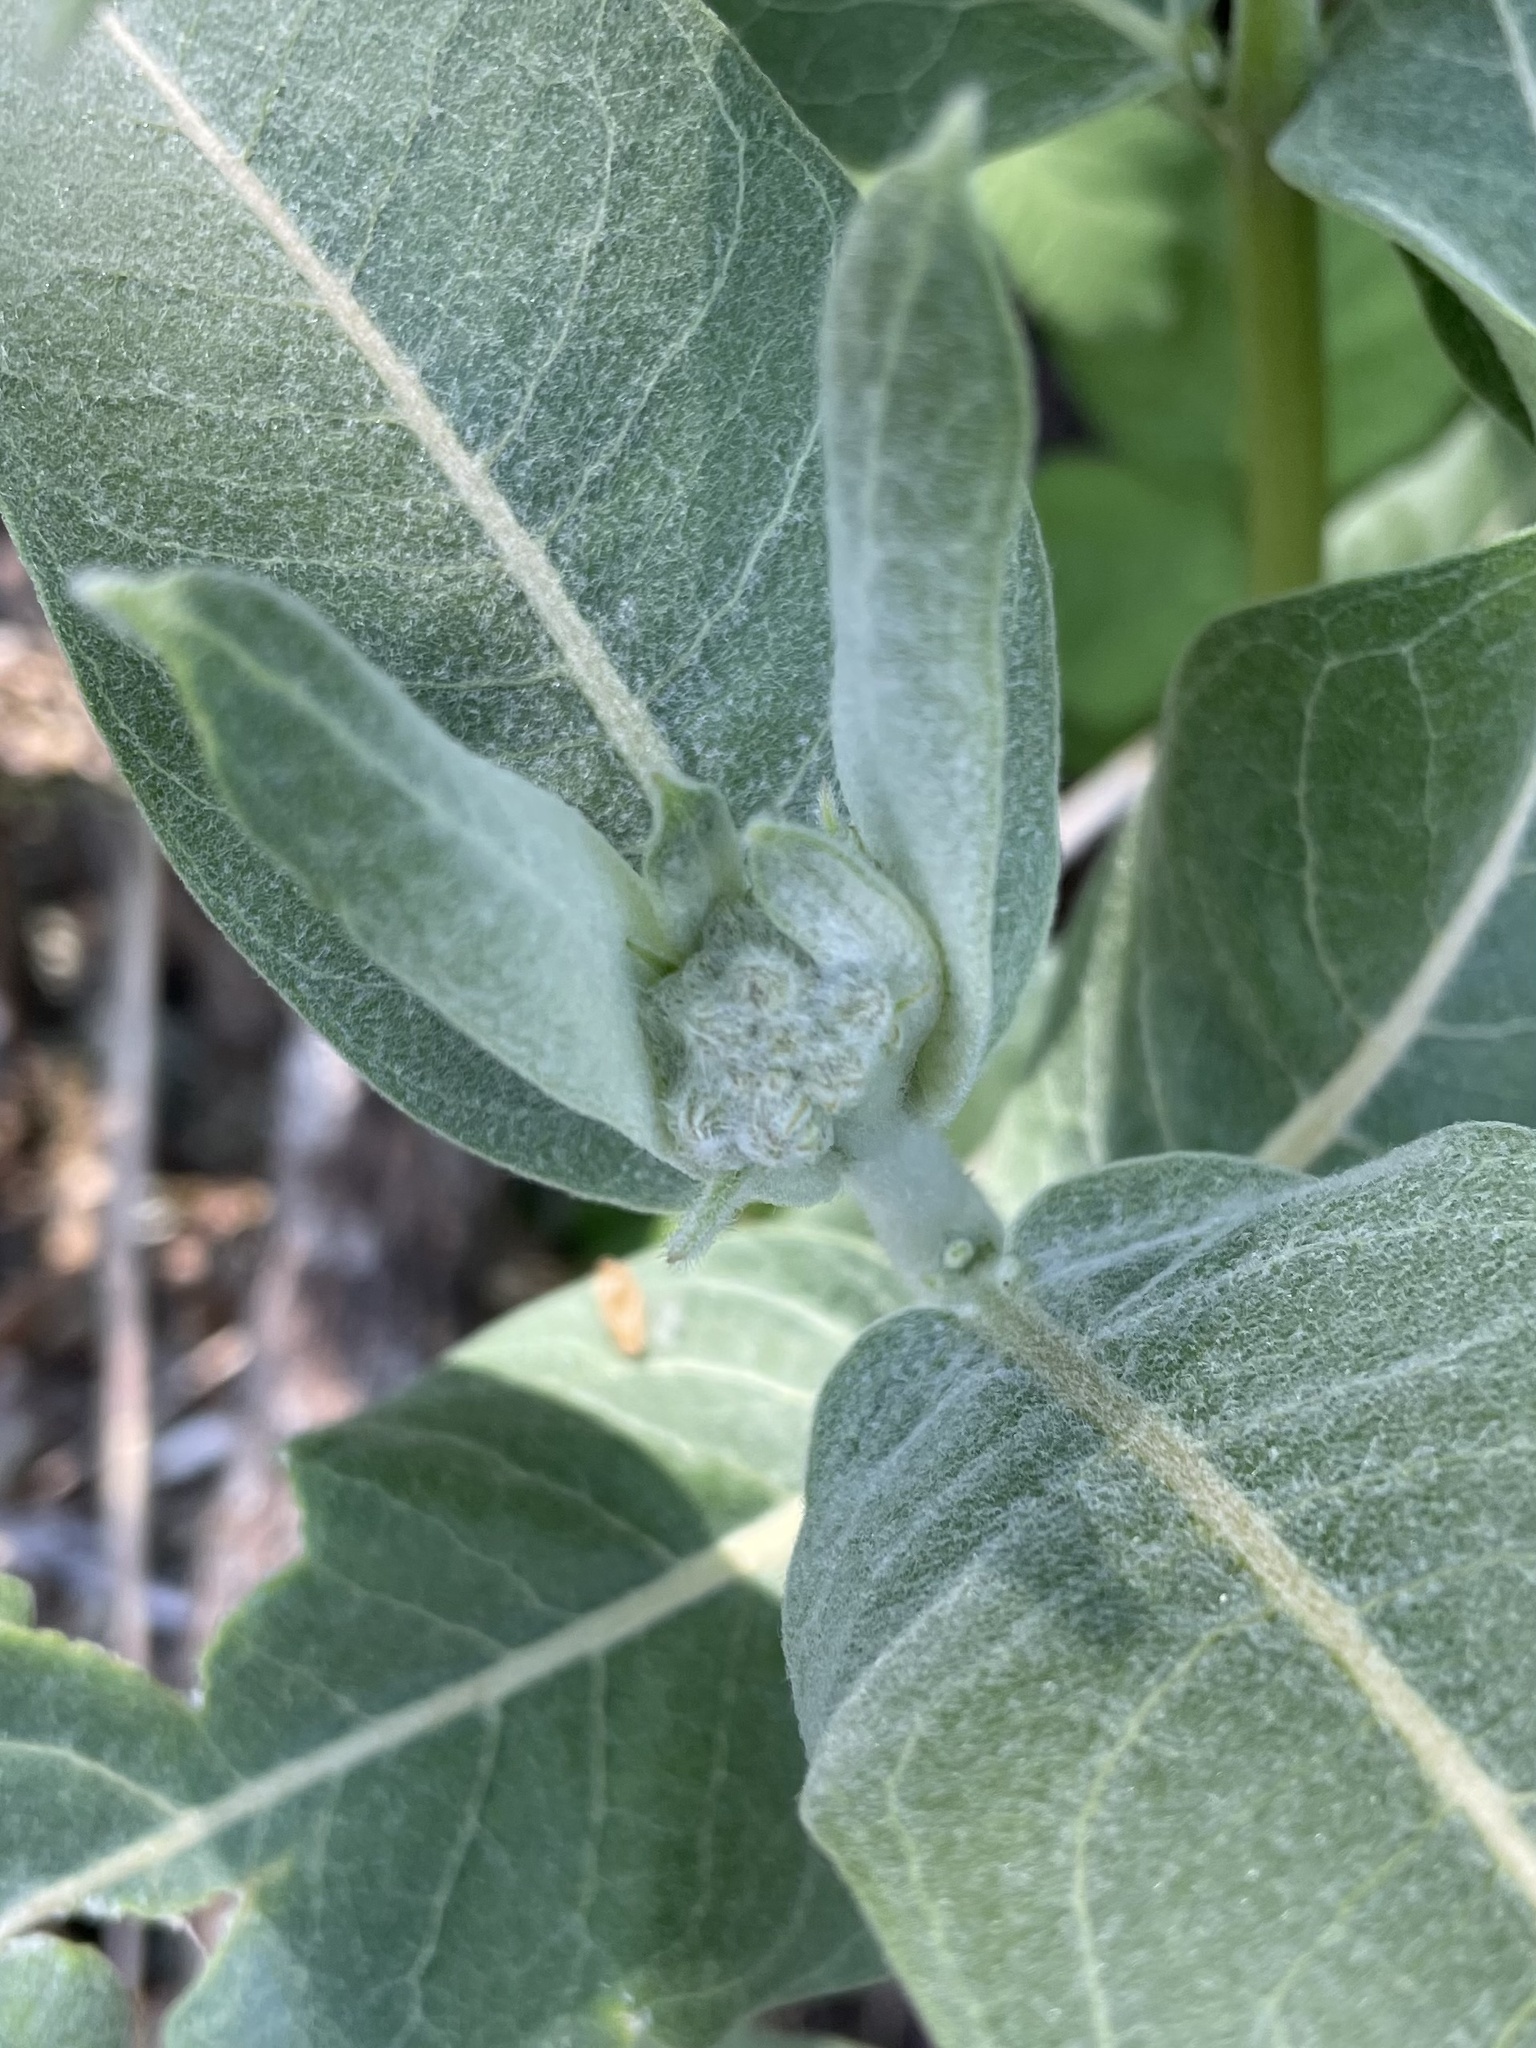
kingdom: Plantae
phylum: Tracheophyta
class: Magnoliopsida
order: Gentianales
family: Apocynaceae
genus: Asclepias
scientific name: Asclepias speciosa
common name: Showy milkweed
